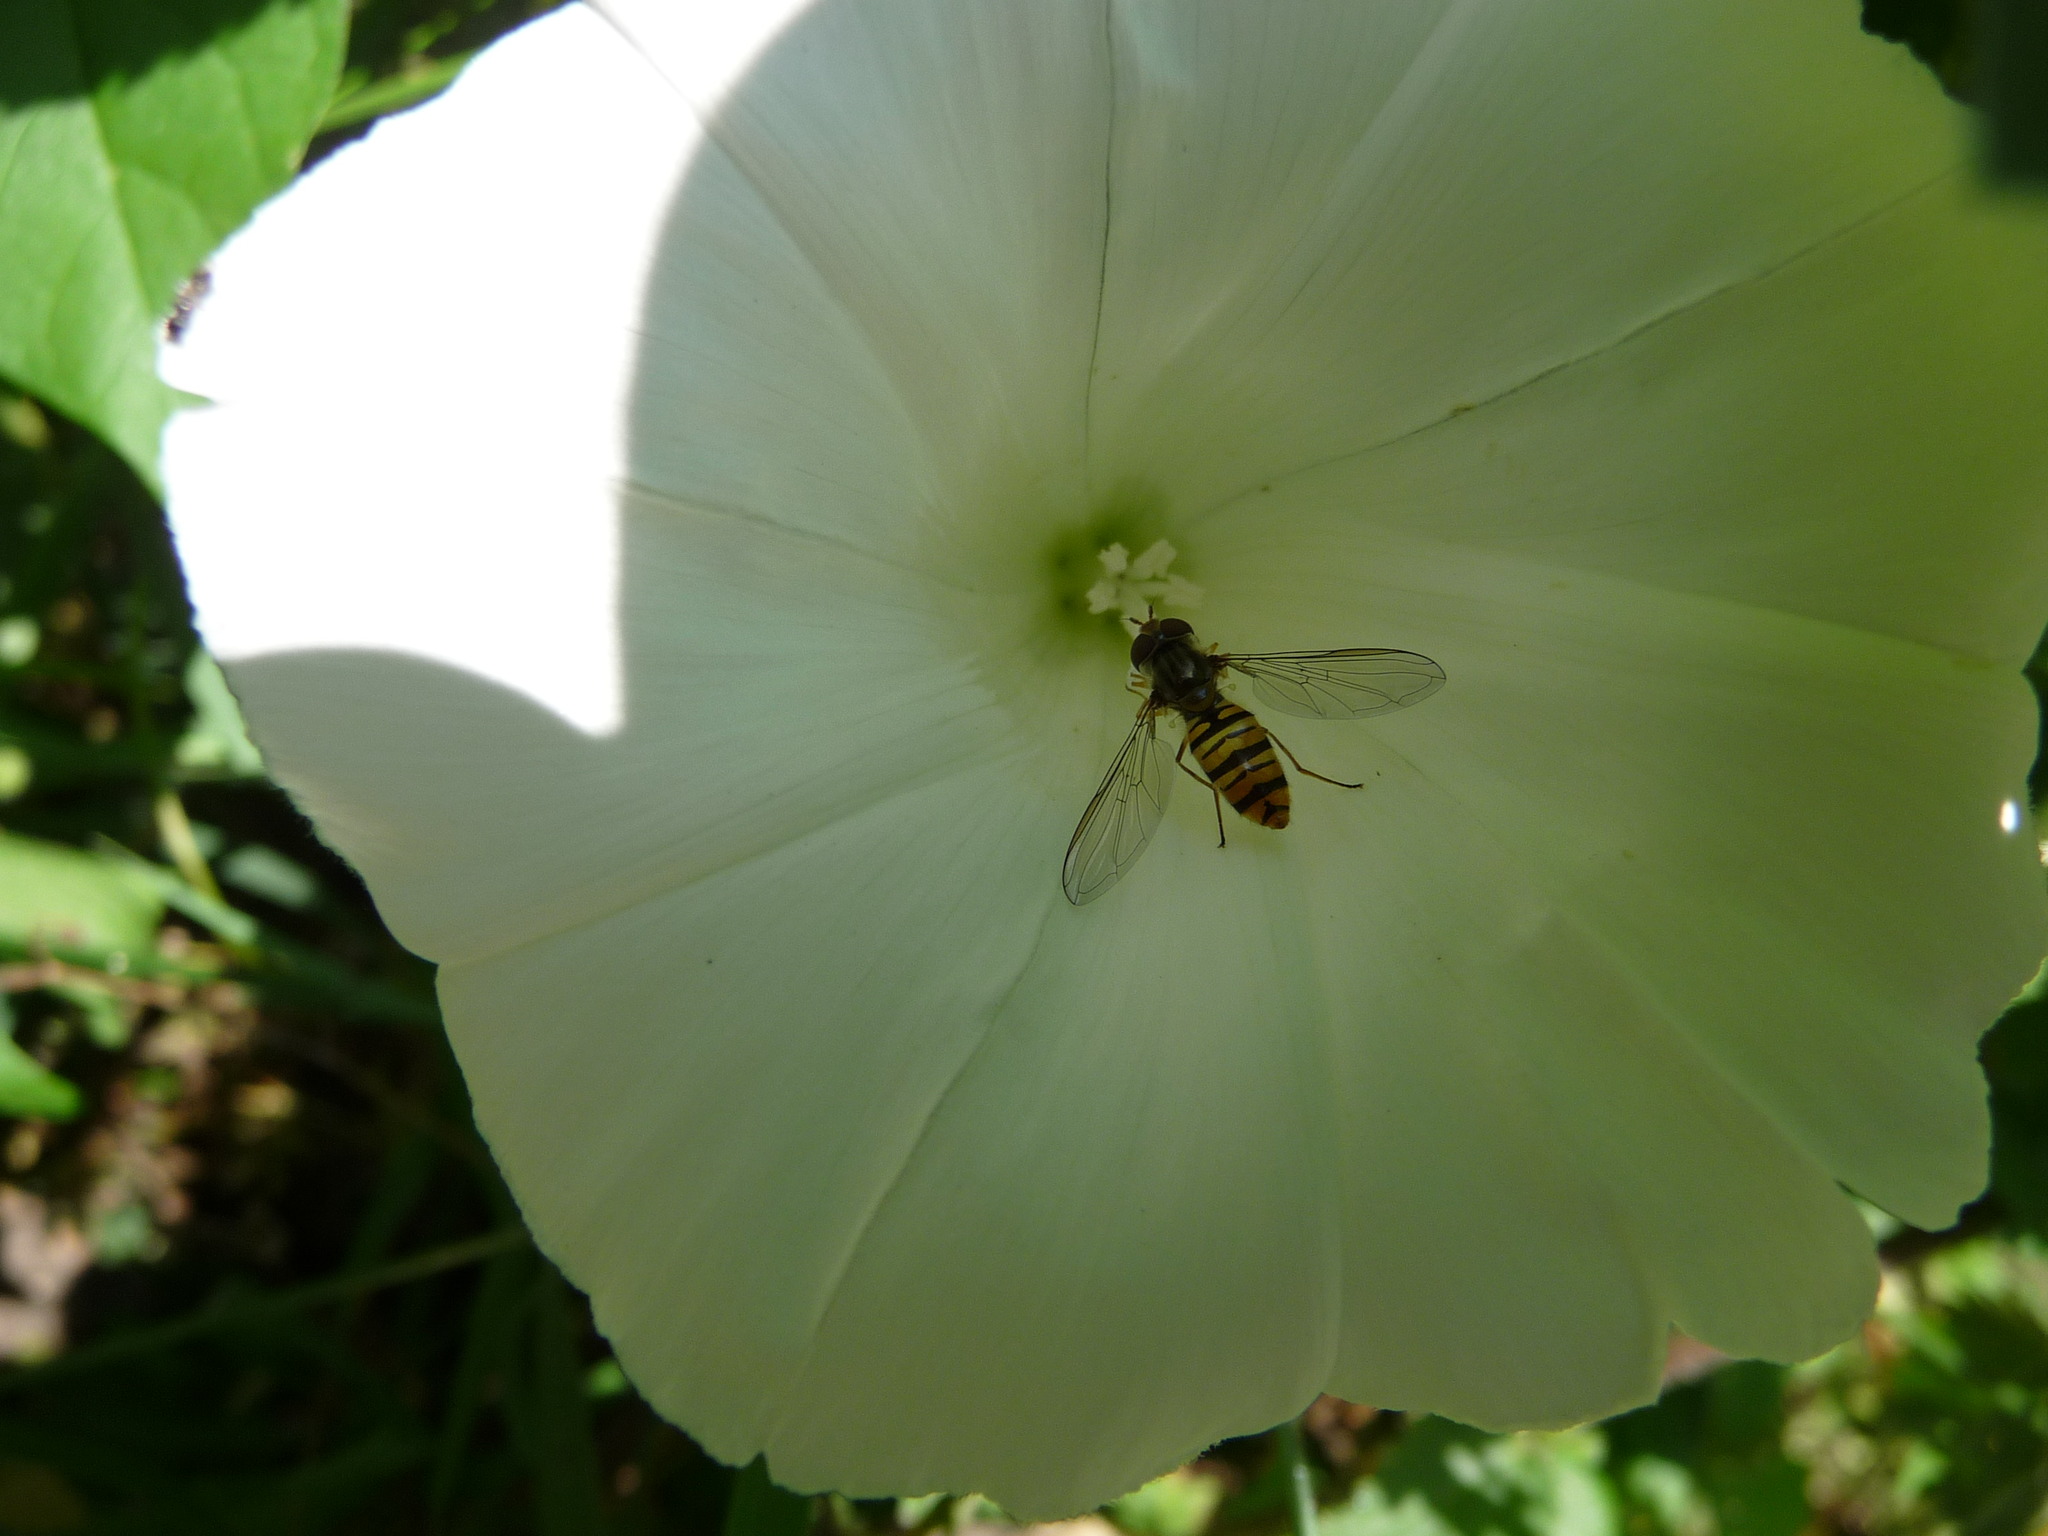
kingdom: Animalia
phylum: Arthropoda
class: Insecta
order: Diptera
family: Syrphidae
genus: Episyrphus
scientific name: Episyrphus balteatus
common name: Marmalade hoverfly
